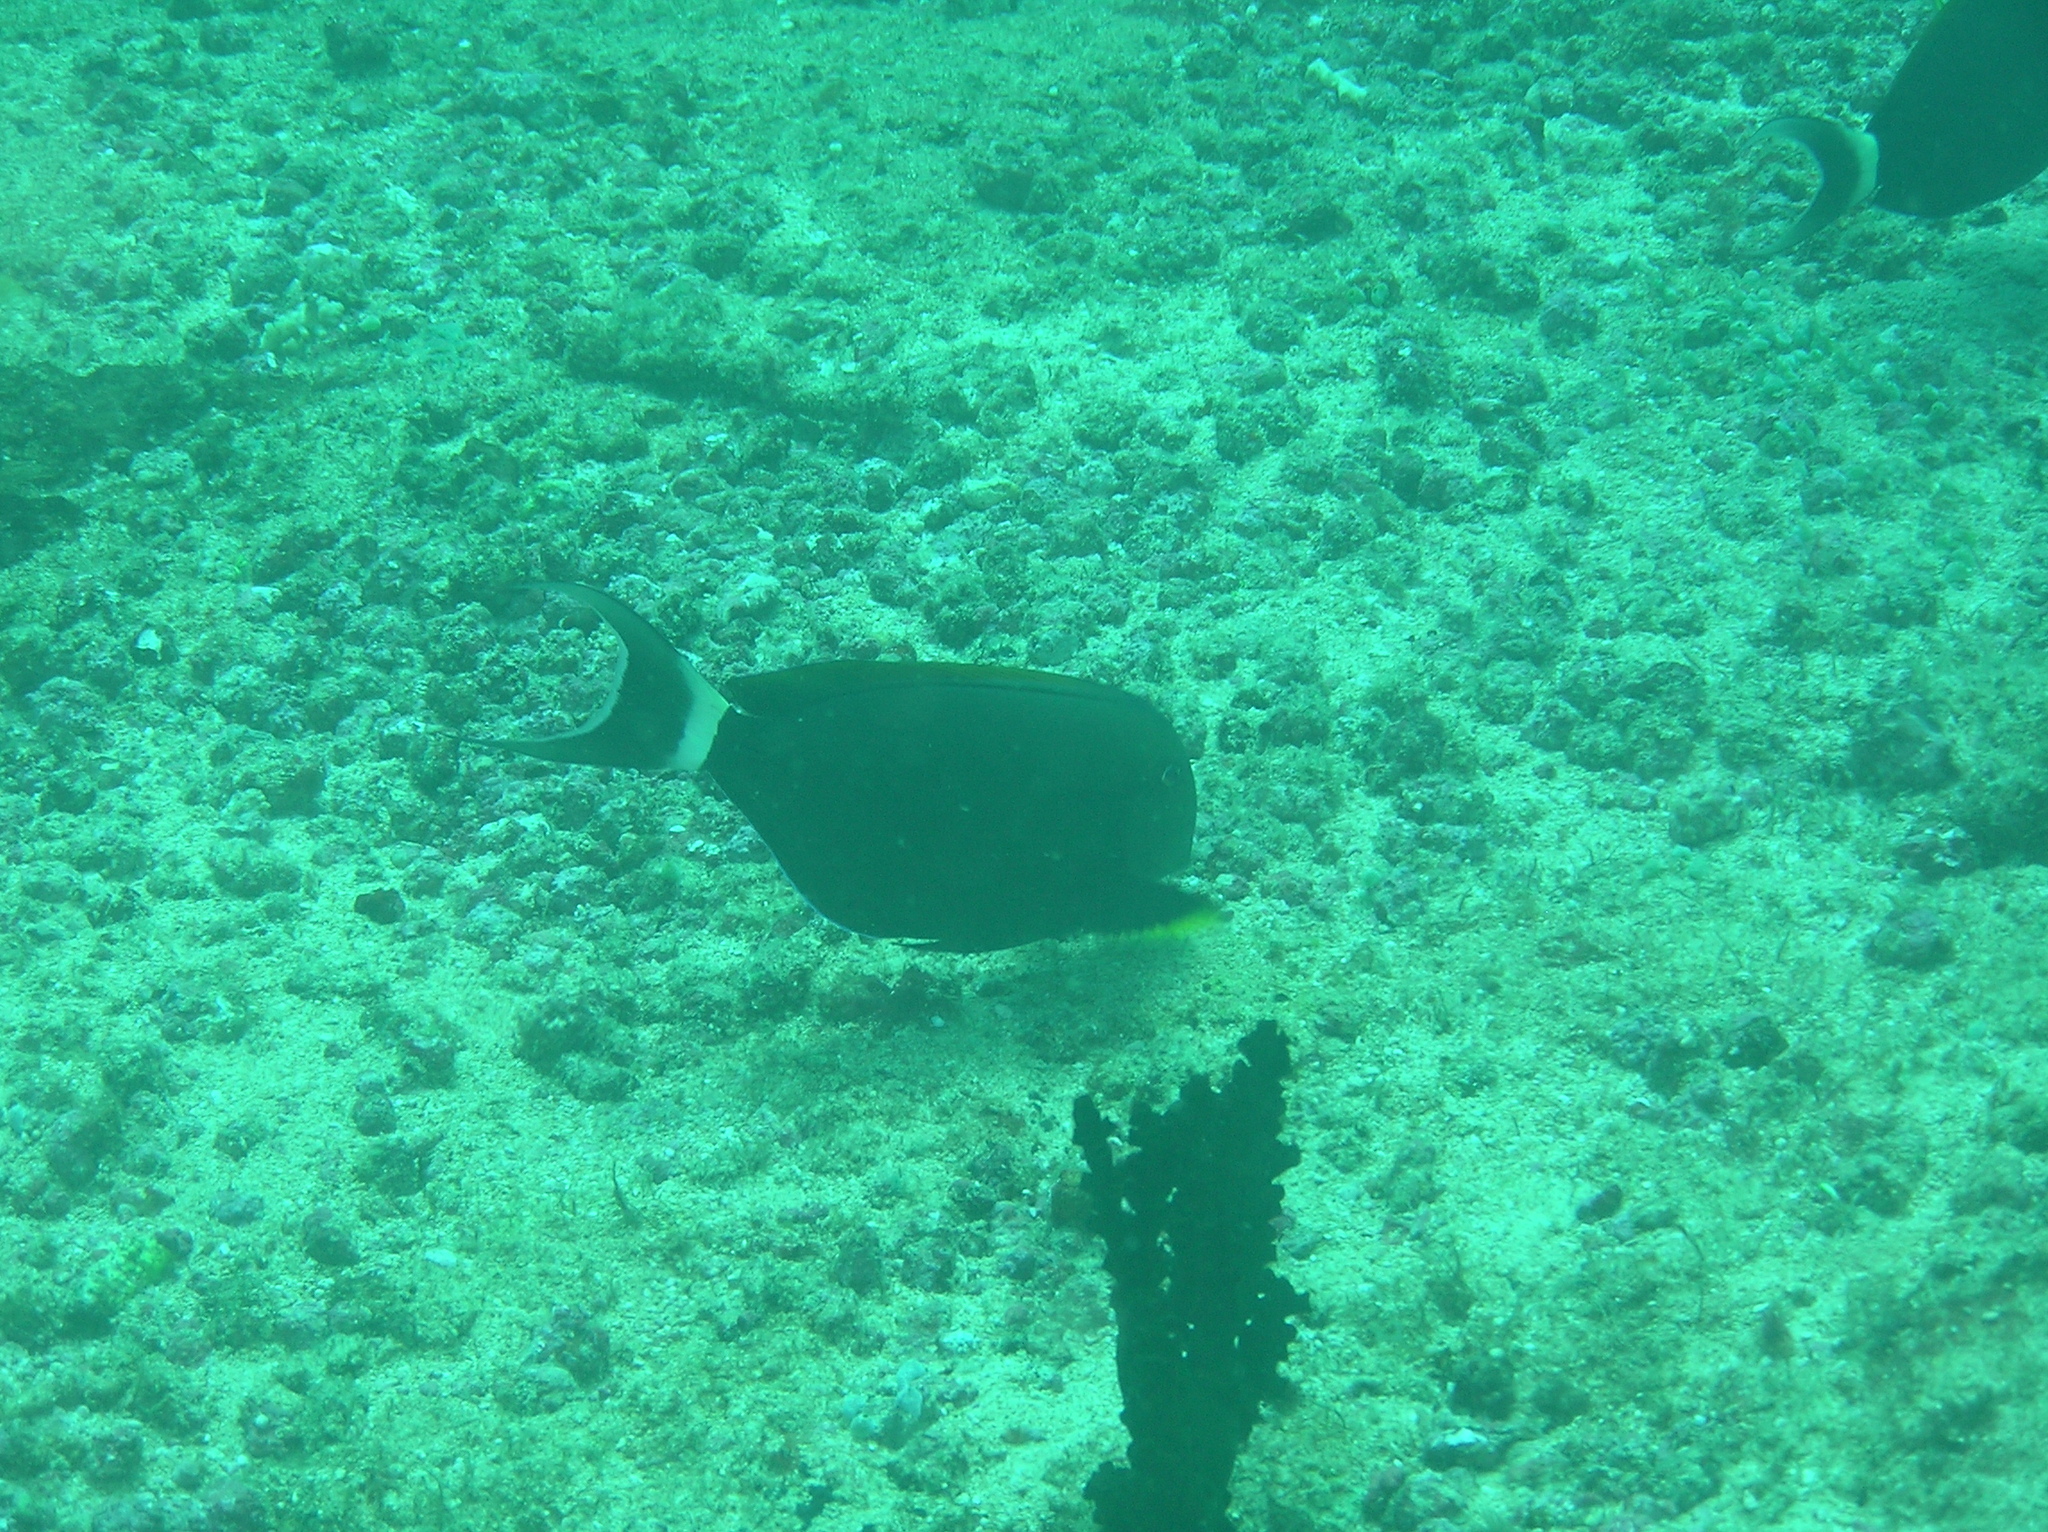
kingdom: Animalia
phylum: Chordata
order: Perciformes
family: Acanthuridae
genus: Acanthurus
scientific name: Acanthurus nigricauda
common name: Black-barred surgeonfish
